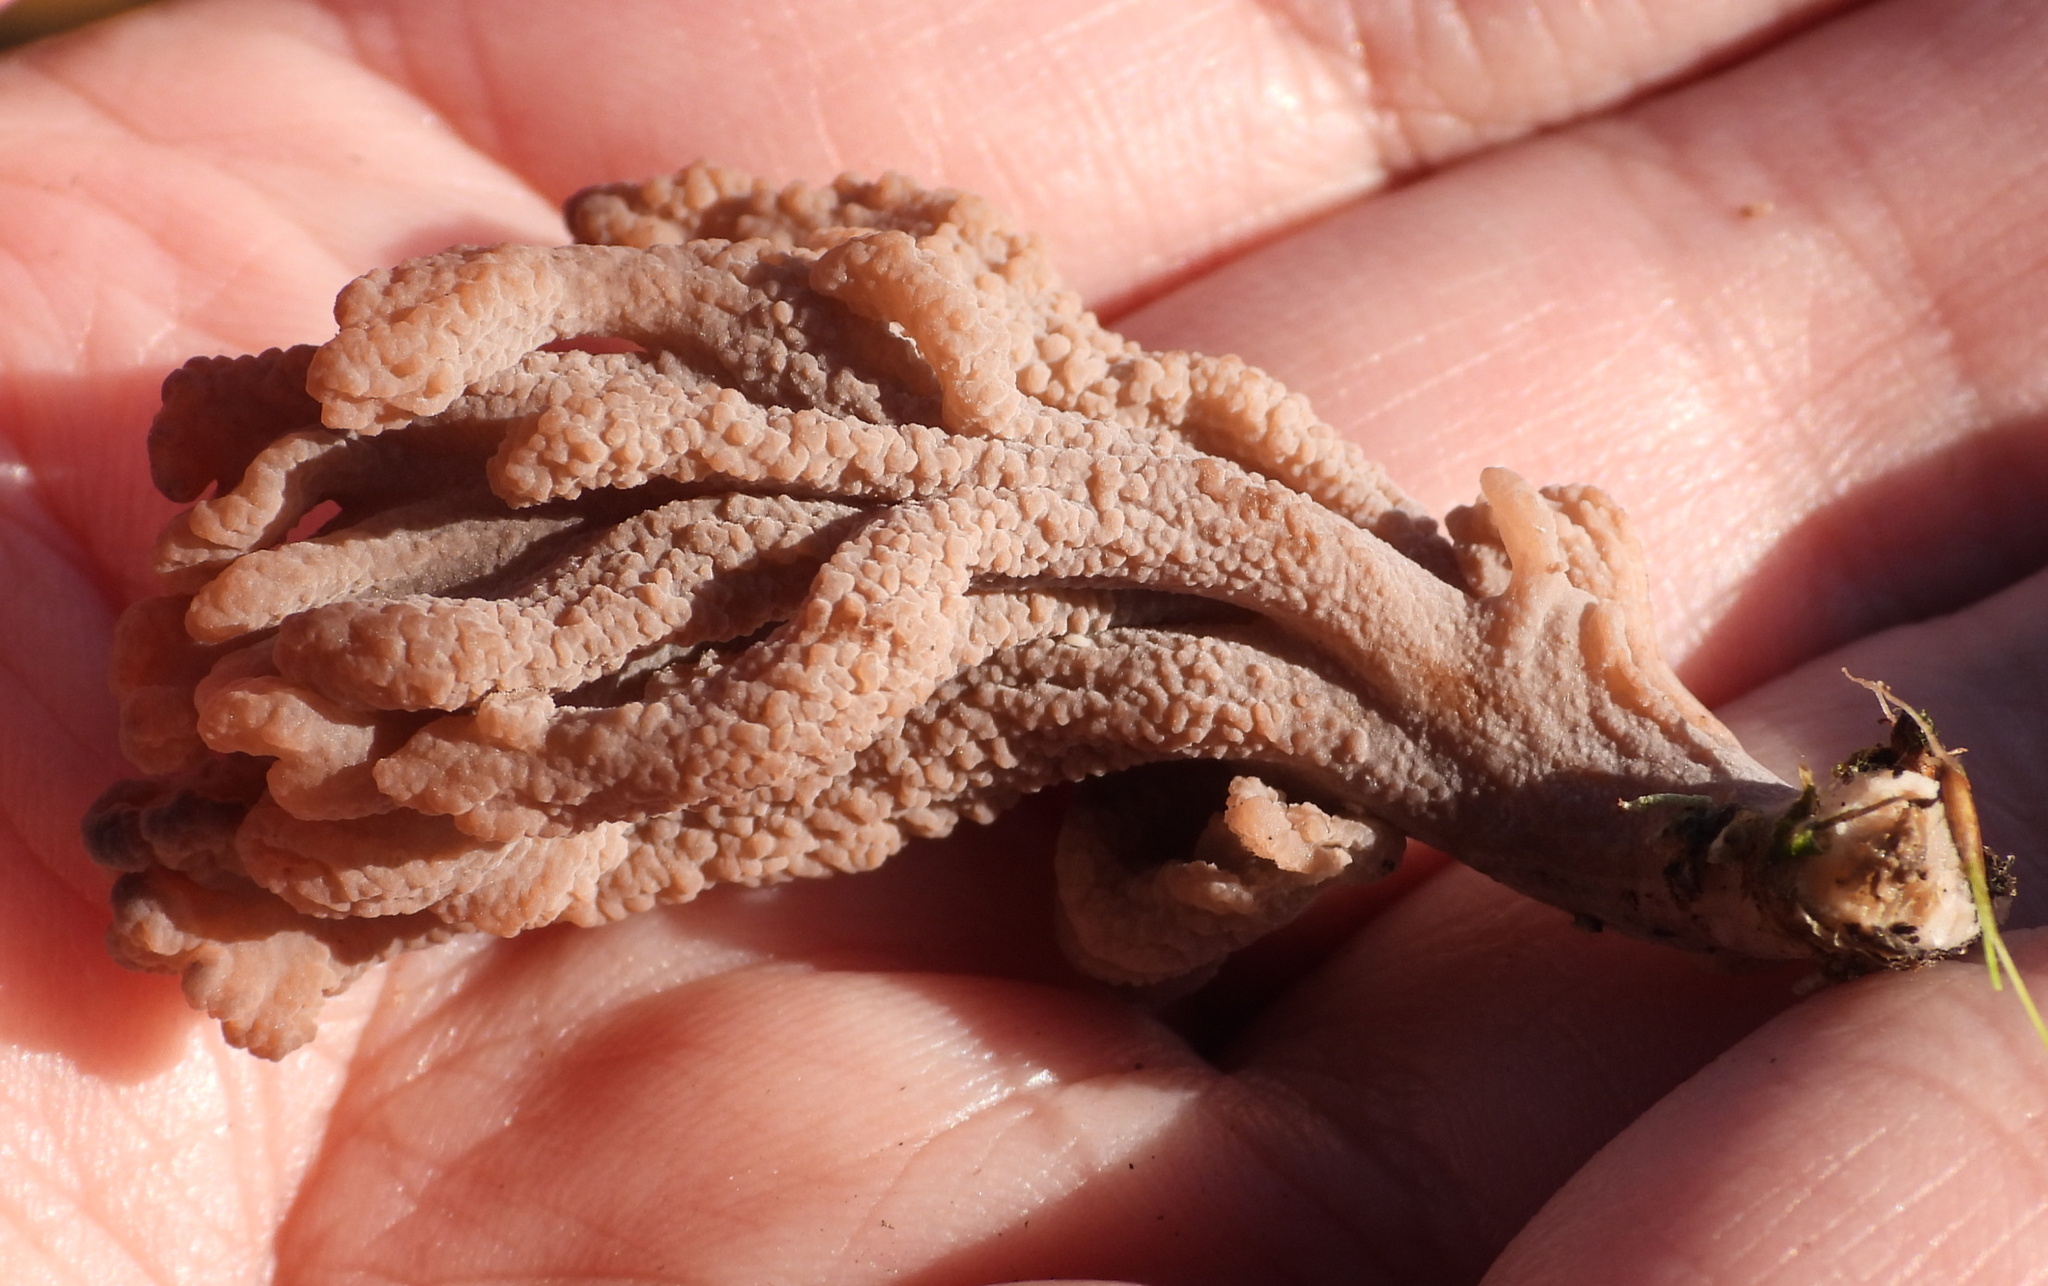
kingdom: Fungi
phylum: Basidiomycota
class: Agaricomycetes
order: Cantharellales
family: Hydnaceae
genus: Clavulina
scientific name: Clavulina cinerea
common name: Grey coral
